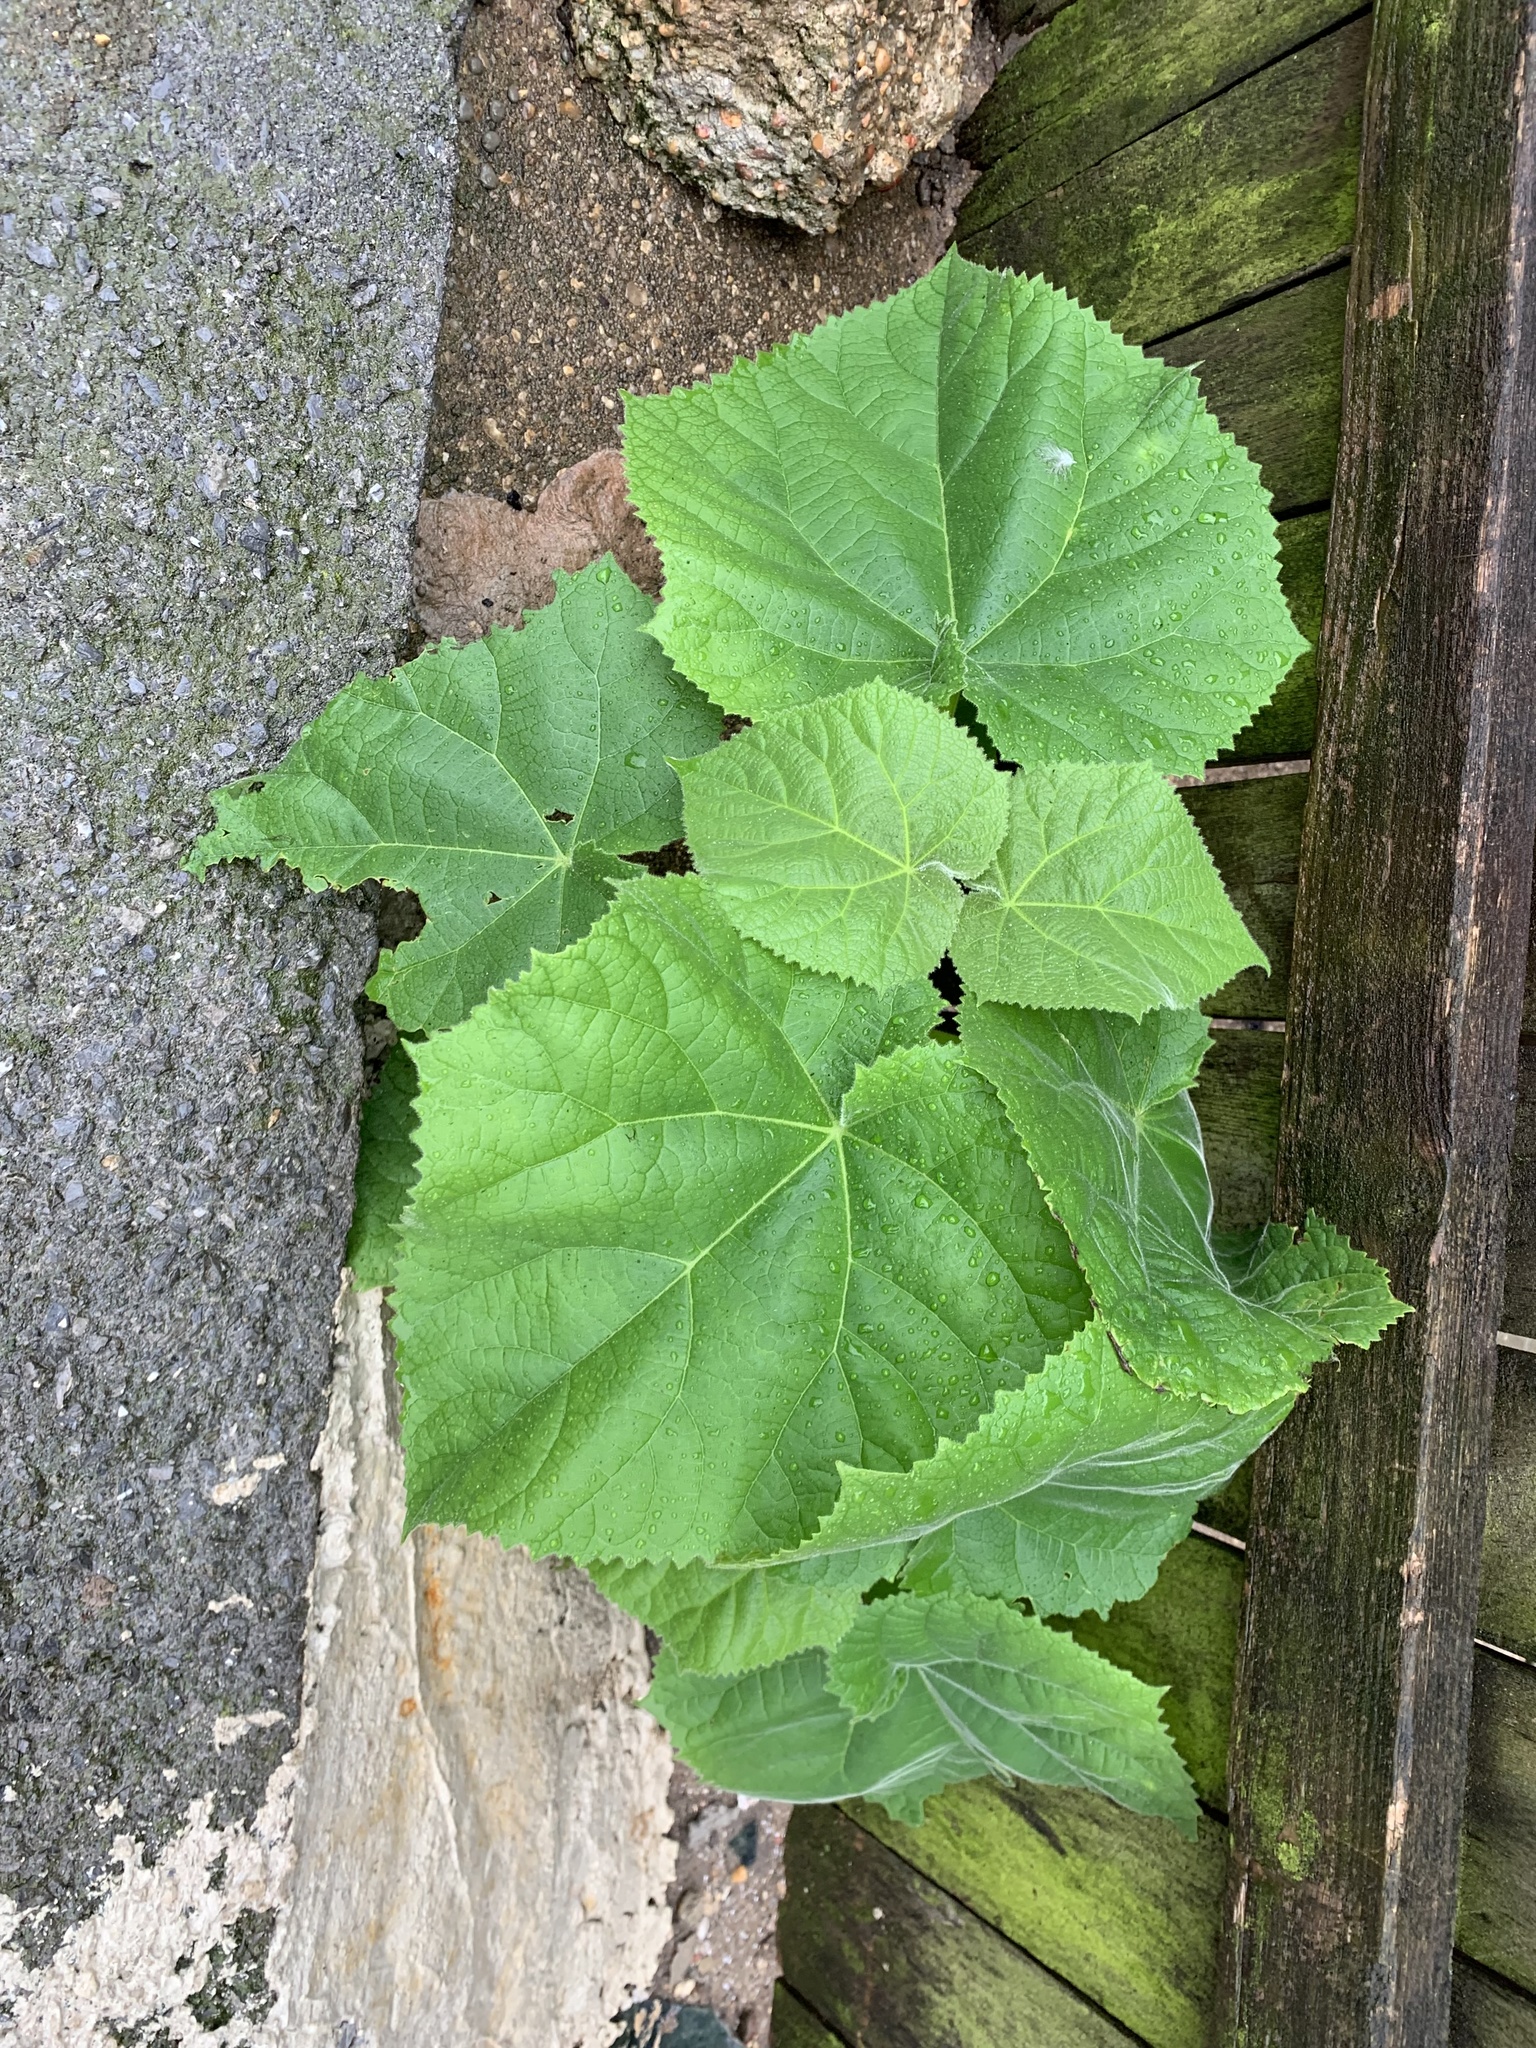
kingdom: Plantae
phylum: Tracheophyta
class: Magnoliopsida
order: Lamiales
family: Paulowniaceae
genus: Paulownia
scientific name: Paulownia tomentosa
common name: Foxglove-tree
